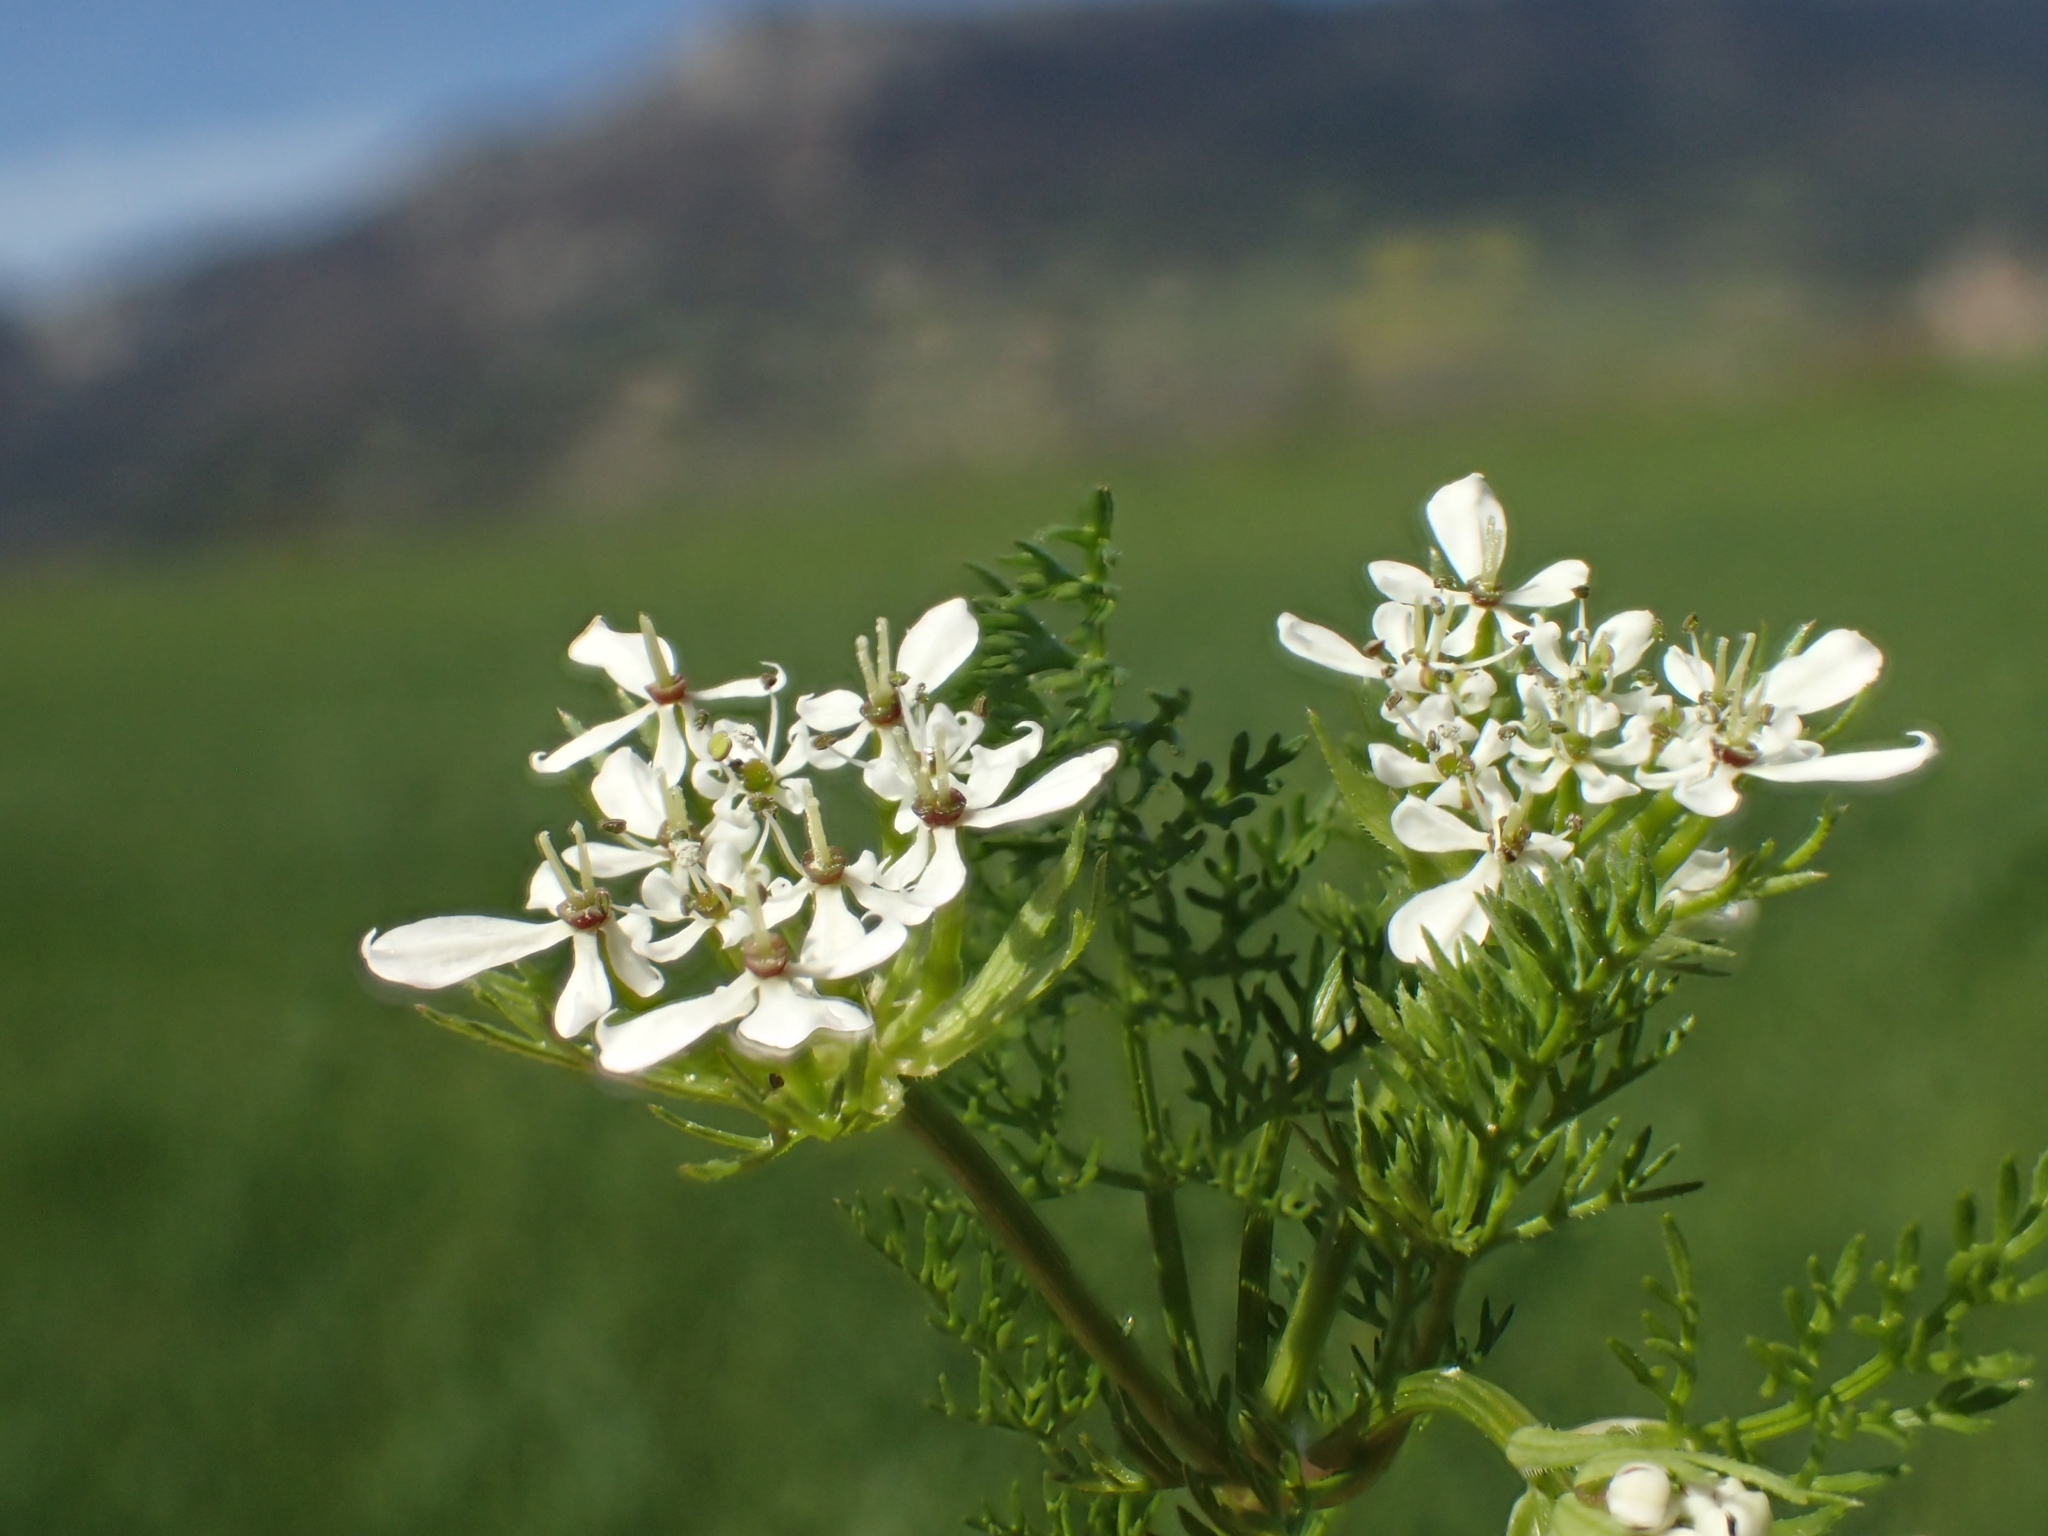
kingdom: Plantae
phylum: Tracheophyta
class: Magnoliopsida
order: Apiales
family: Apiaceae
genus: Scandix
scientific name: Scandix pecten-veneris
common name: Shepherd's-needle
